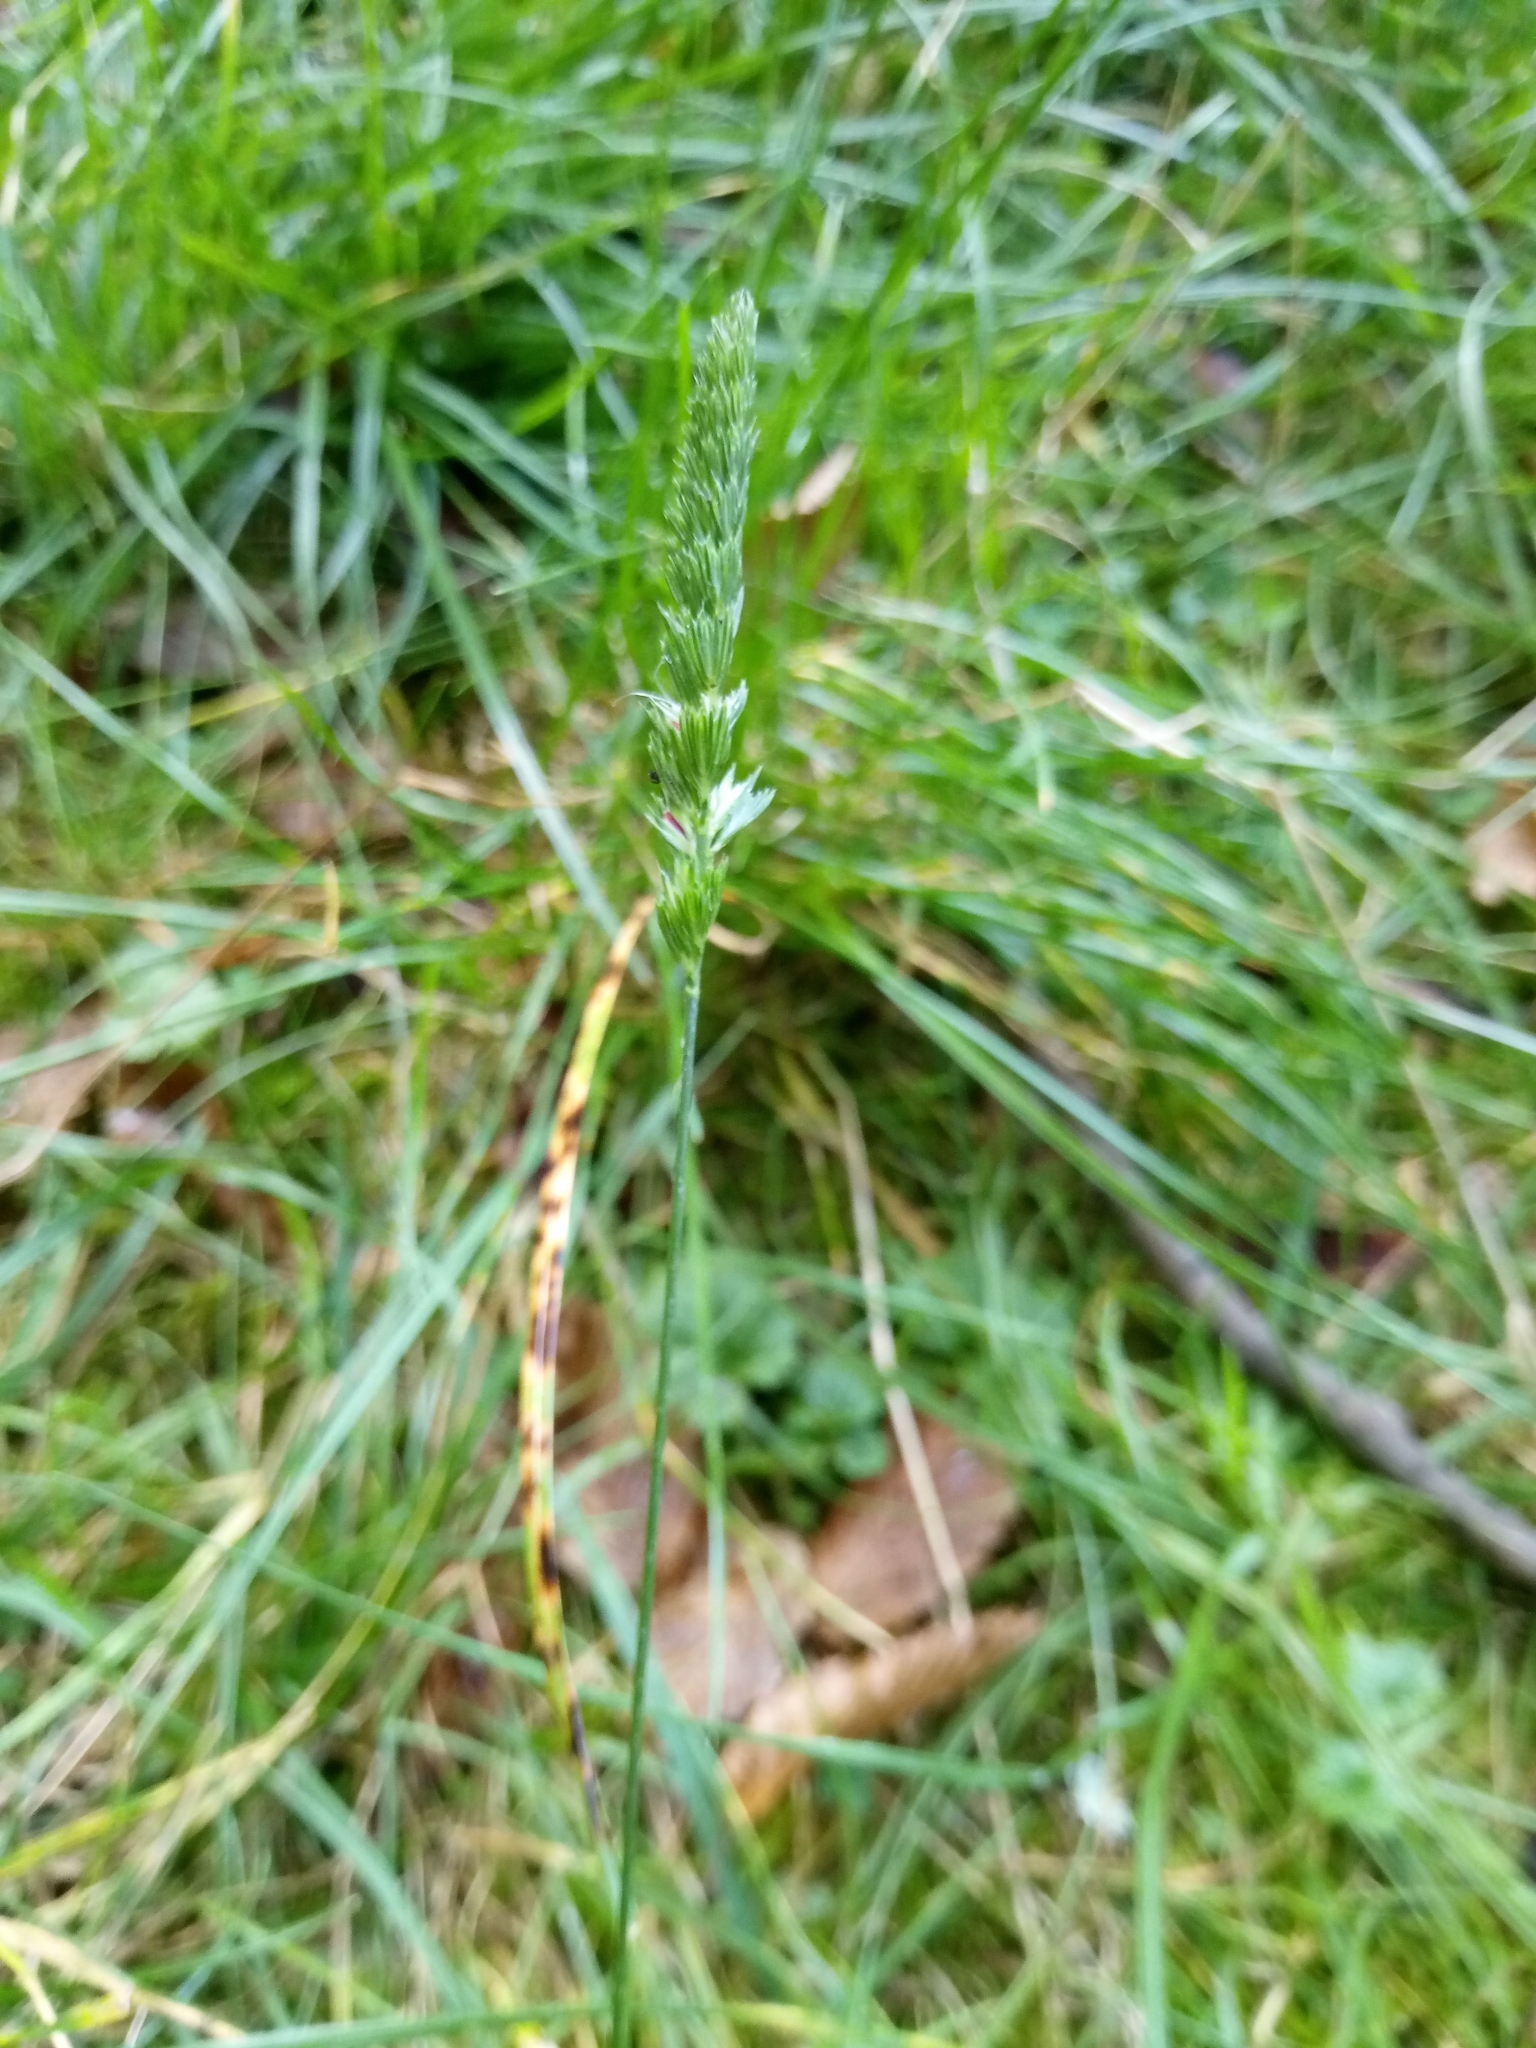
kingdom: Plantae
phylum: Tracheophyta
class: Liliopsida
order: Poales
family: Poaceae
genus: Cynosurus
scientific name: Cynosurus cristatus
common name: Crested dog's-tail
